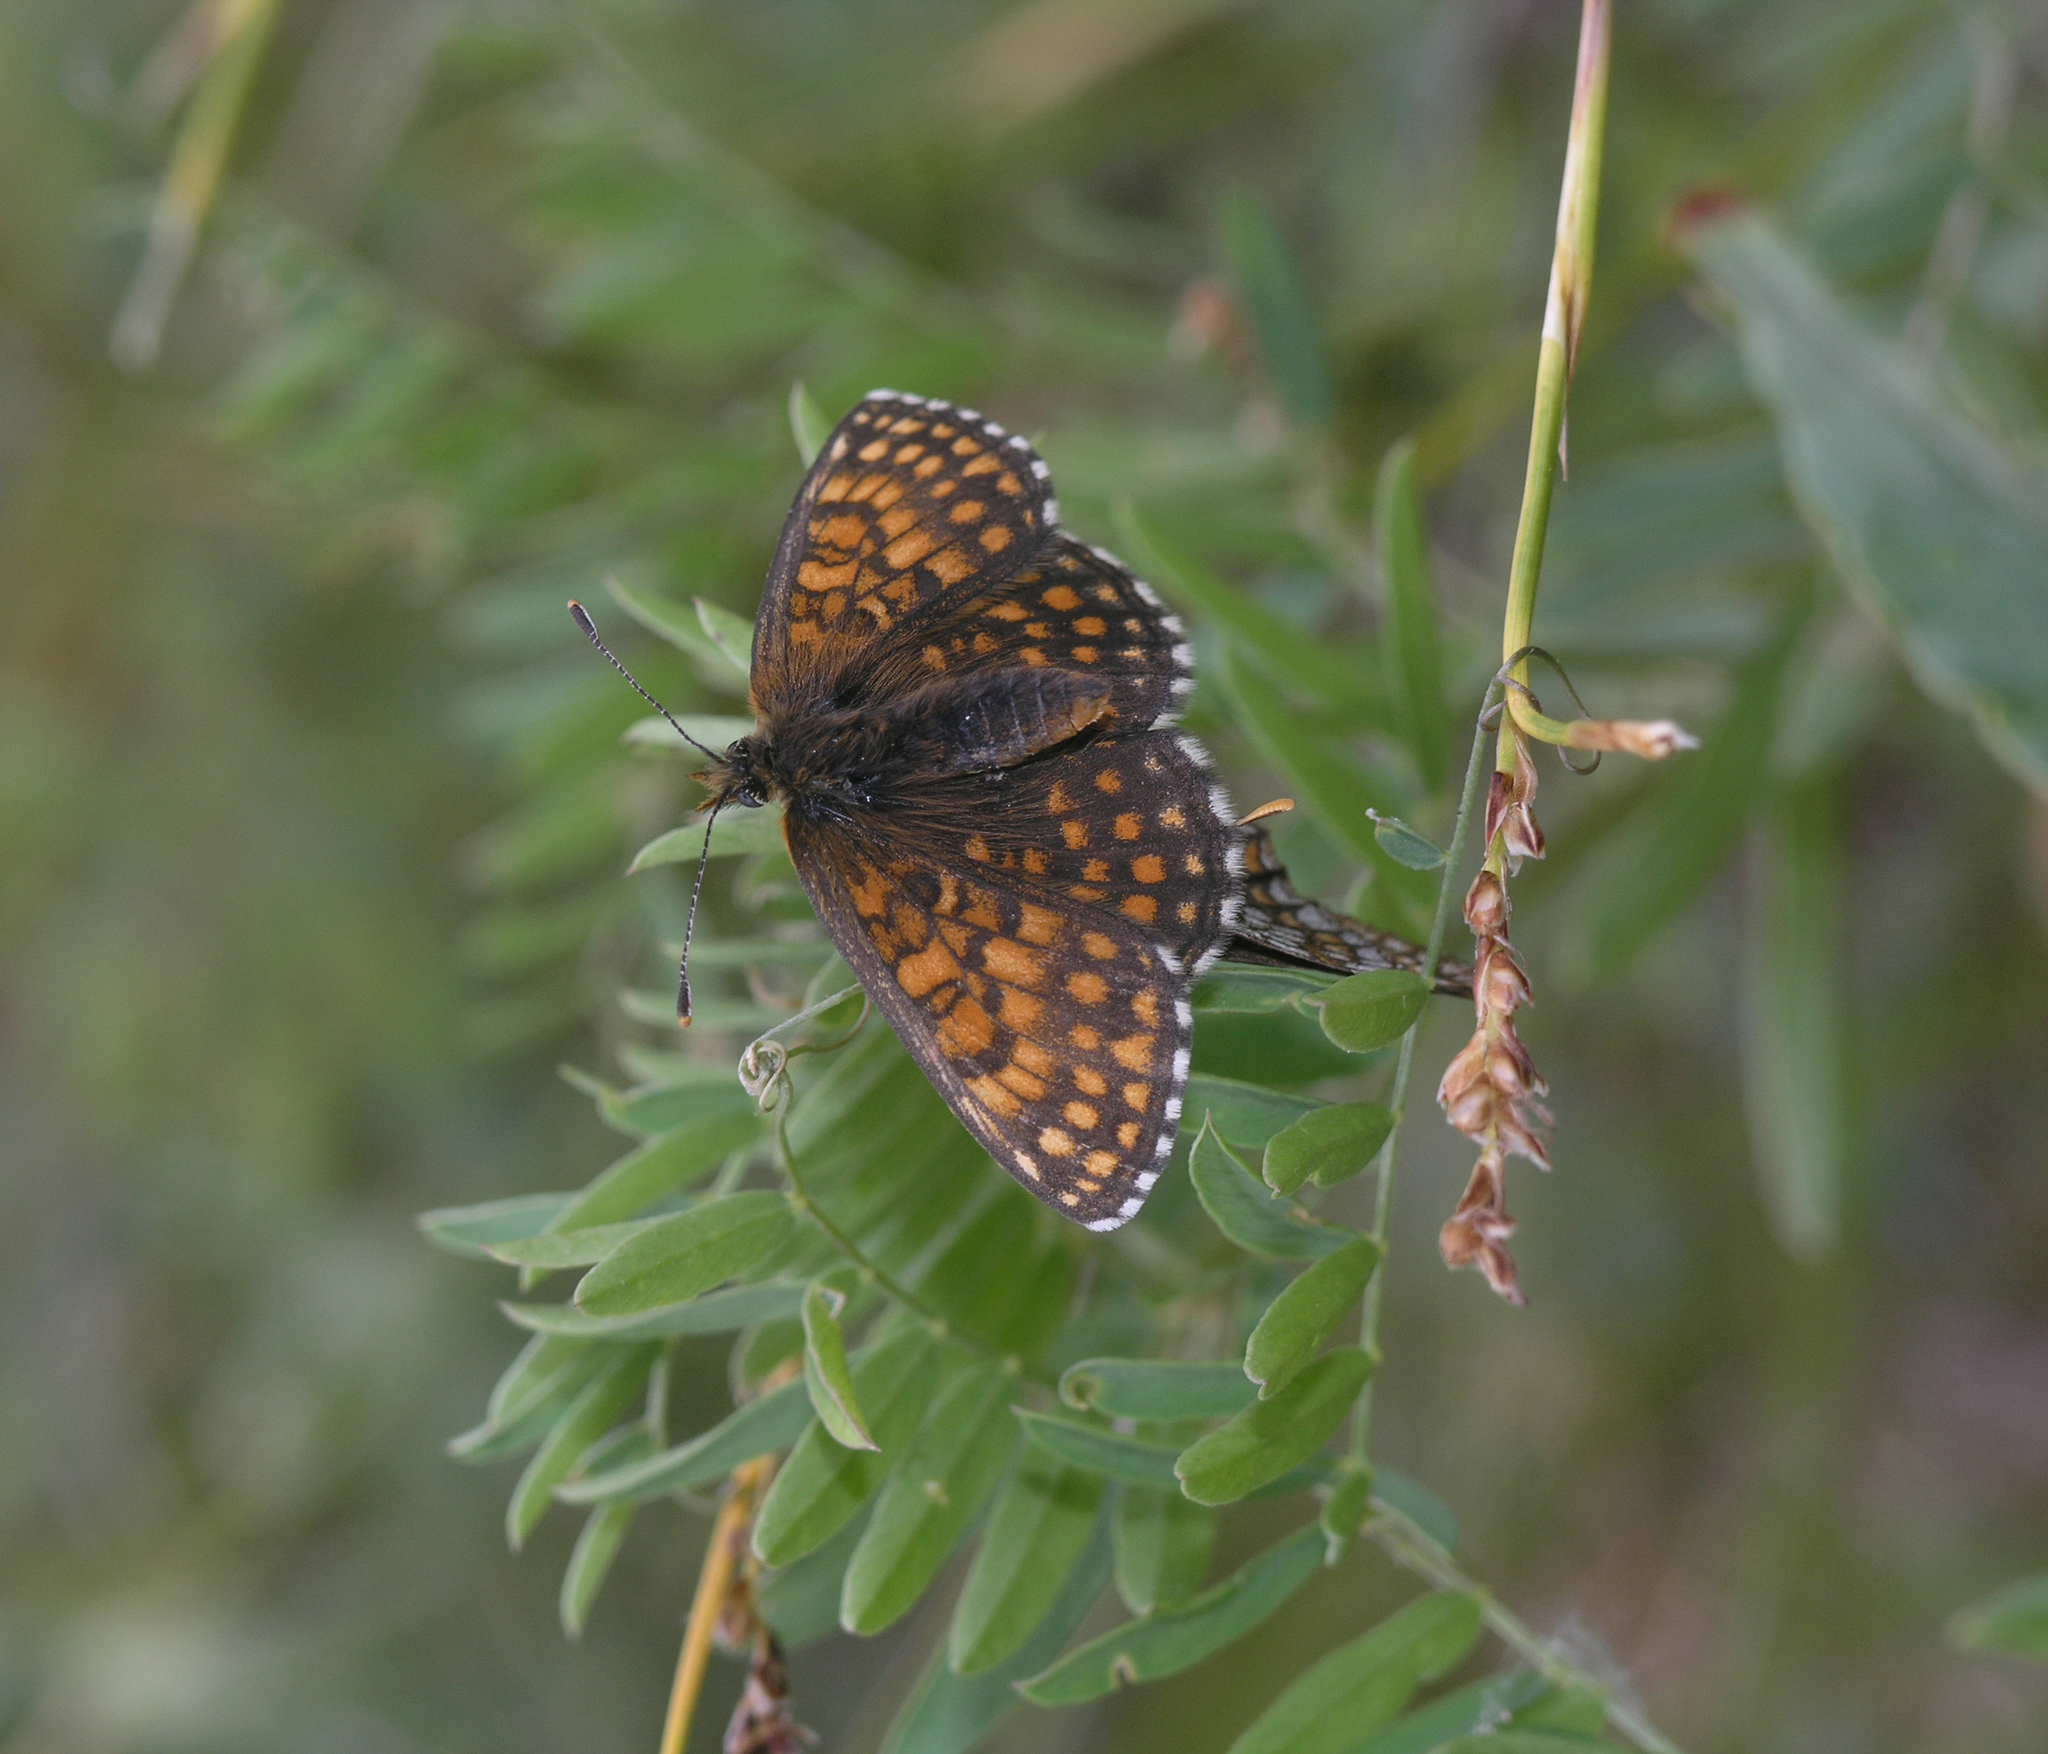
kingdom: Animalia
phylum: Arthropoda
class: Insecta
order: Lepidoptera
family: Nymphalidae
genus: Mellicta
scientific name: Mellicta menetriesi
